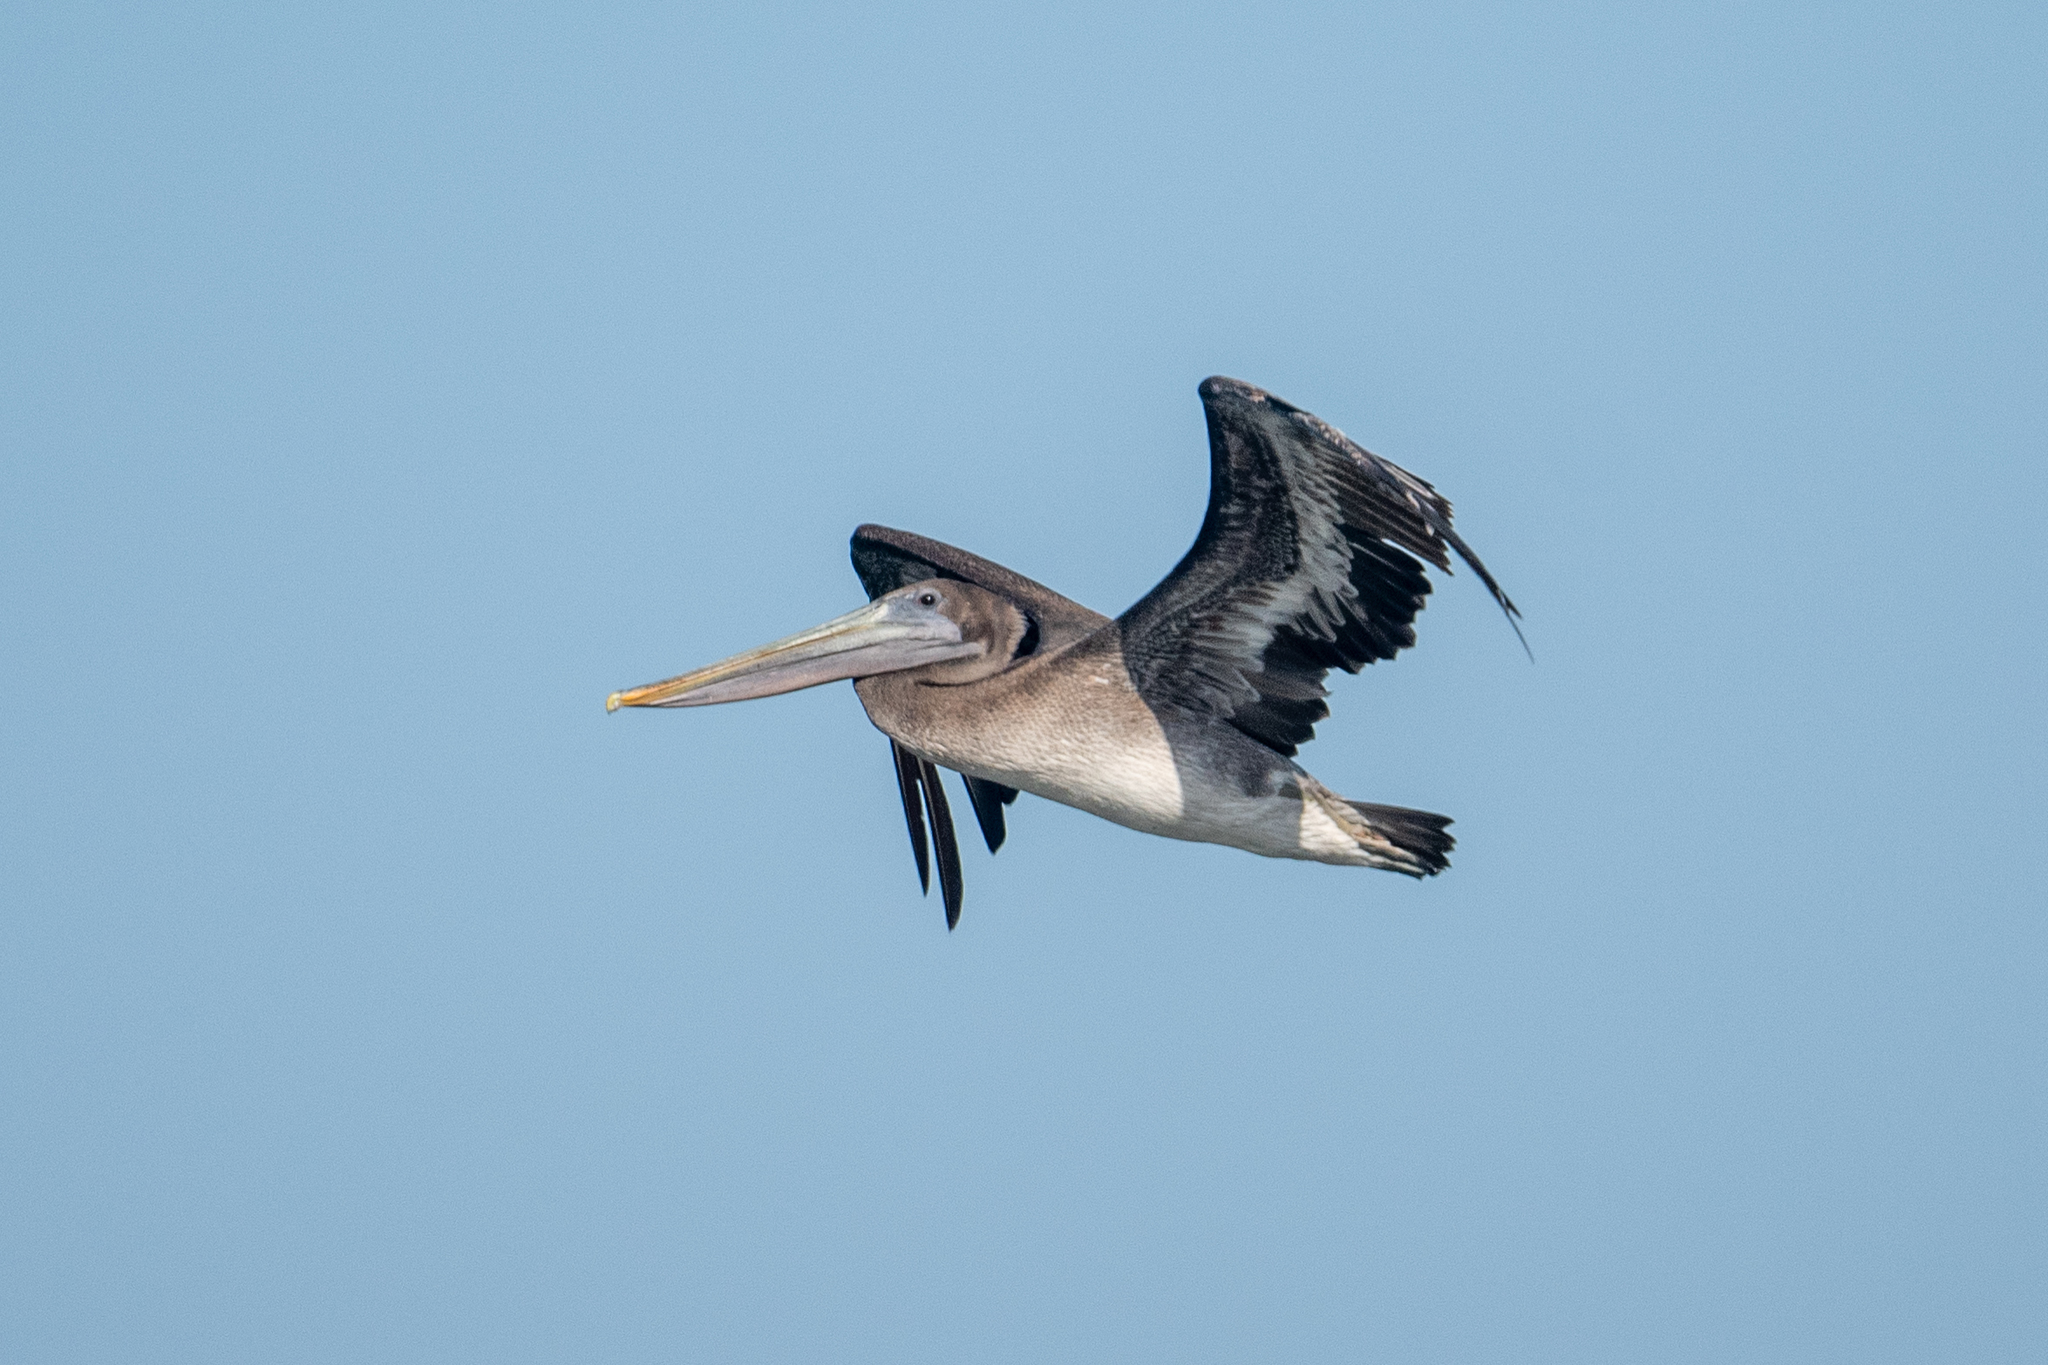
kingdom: Animalia
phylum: Chordata
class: Aves
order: Pelecaniformes
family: Pelecanidae
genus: Pelecanus
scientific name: Pelecanus occidentalis
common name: Brown pelican
